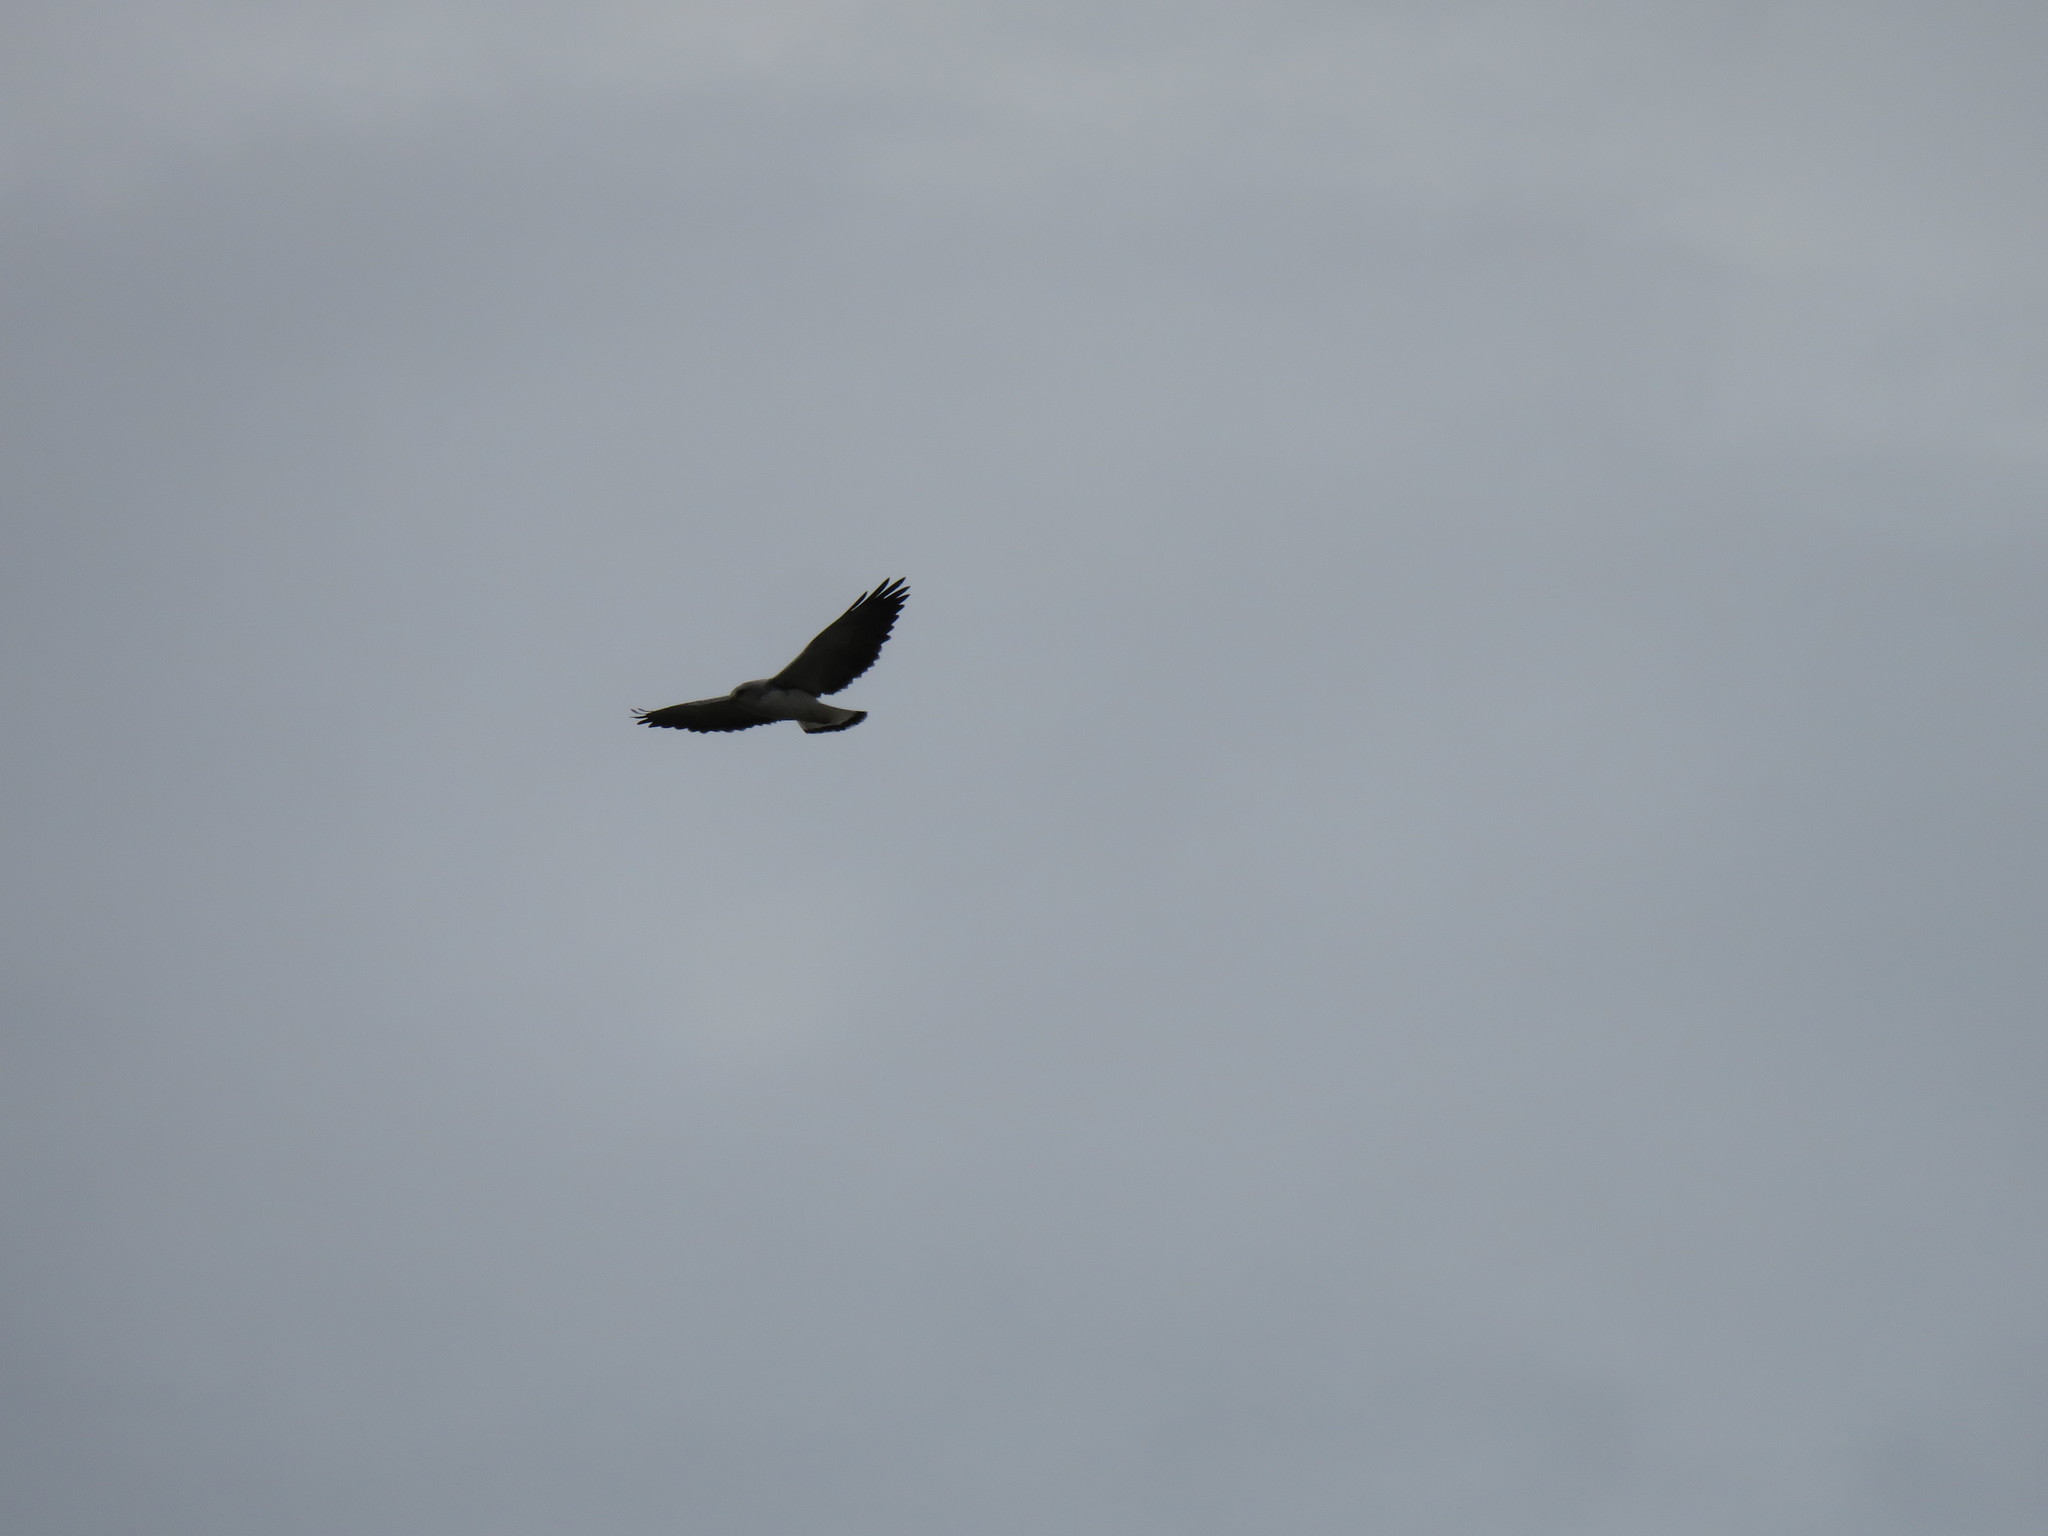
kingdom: Animalia
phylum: Chordata
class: Aves
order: Accipitriformes
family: Accipitridae
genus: Buteo
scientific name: Buteo polyosoma
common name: Variable hawk
